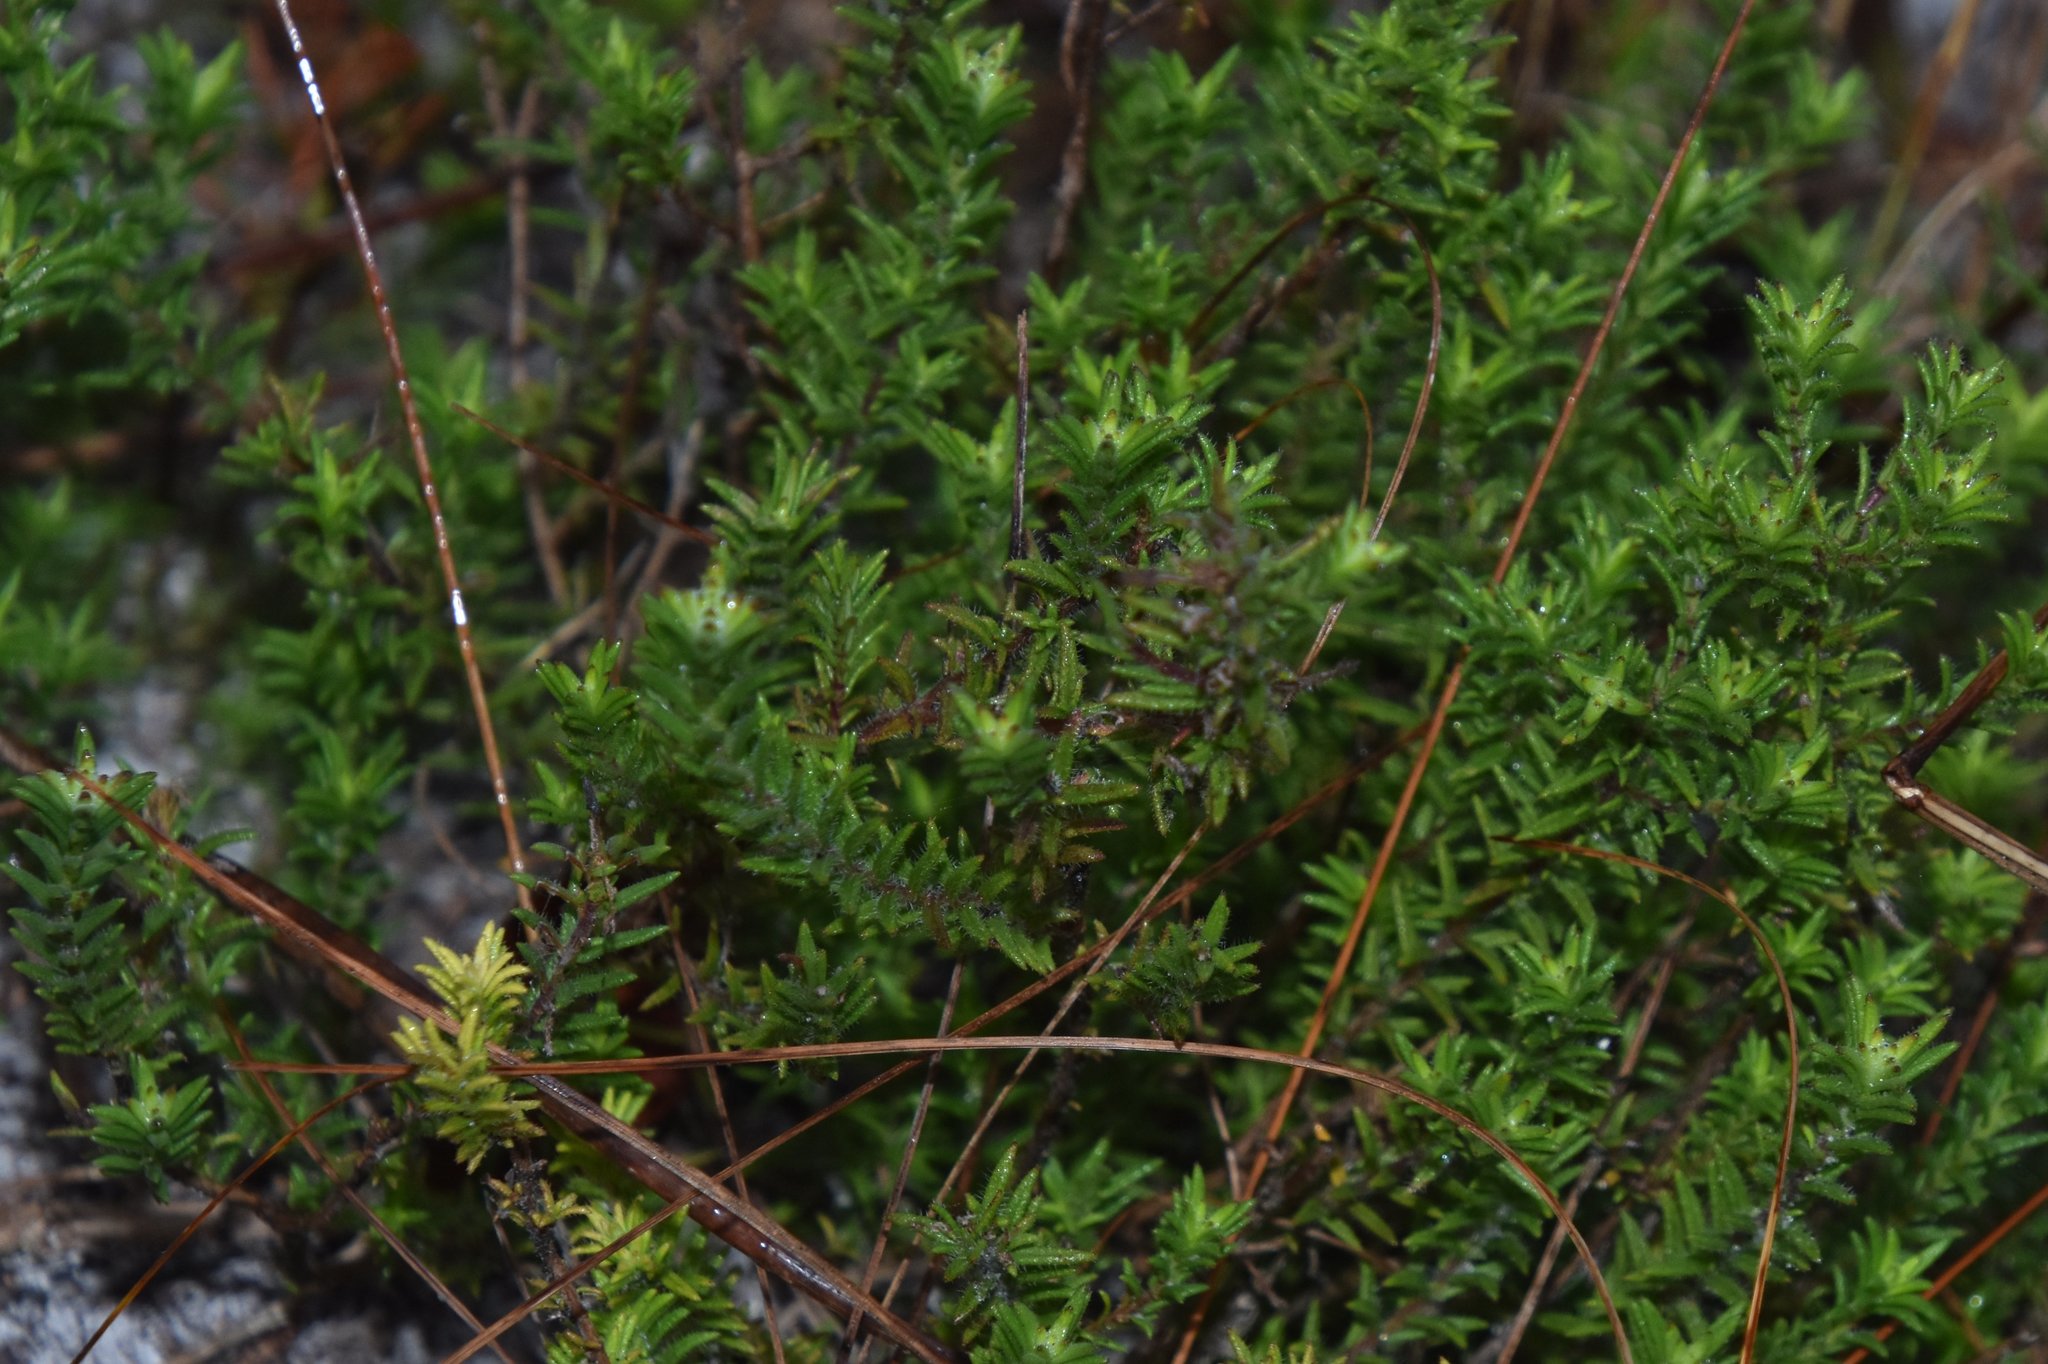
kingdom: Plantae
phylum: Tracheophyta
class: Magnoliopsida
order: Lamiales
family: Lamiaceae
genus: Piloblephis
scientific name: Piloblephis rigida
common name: Wild pennyroyal
